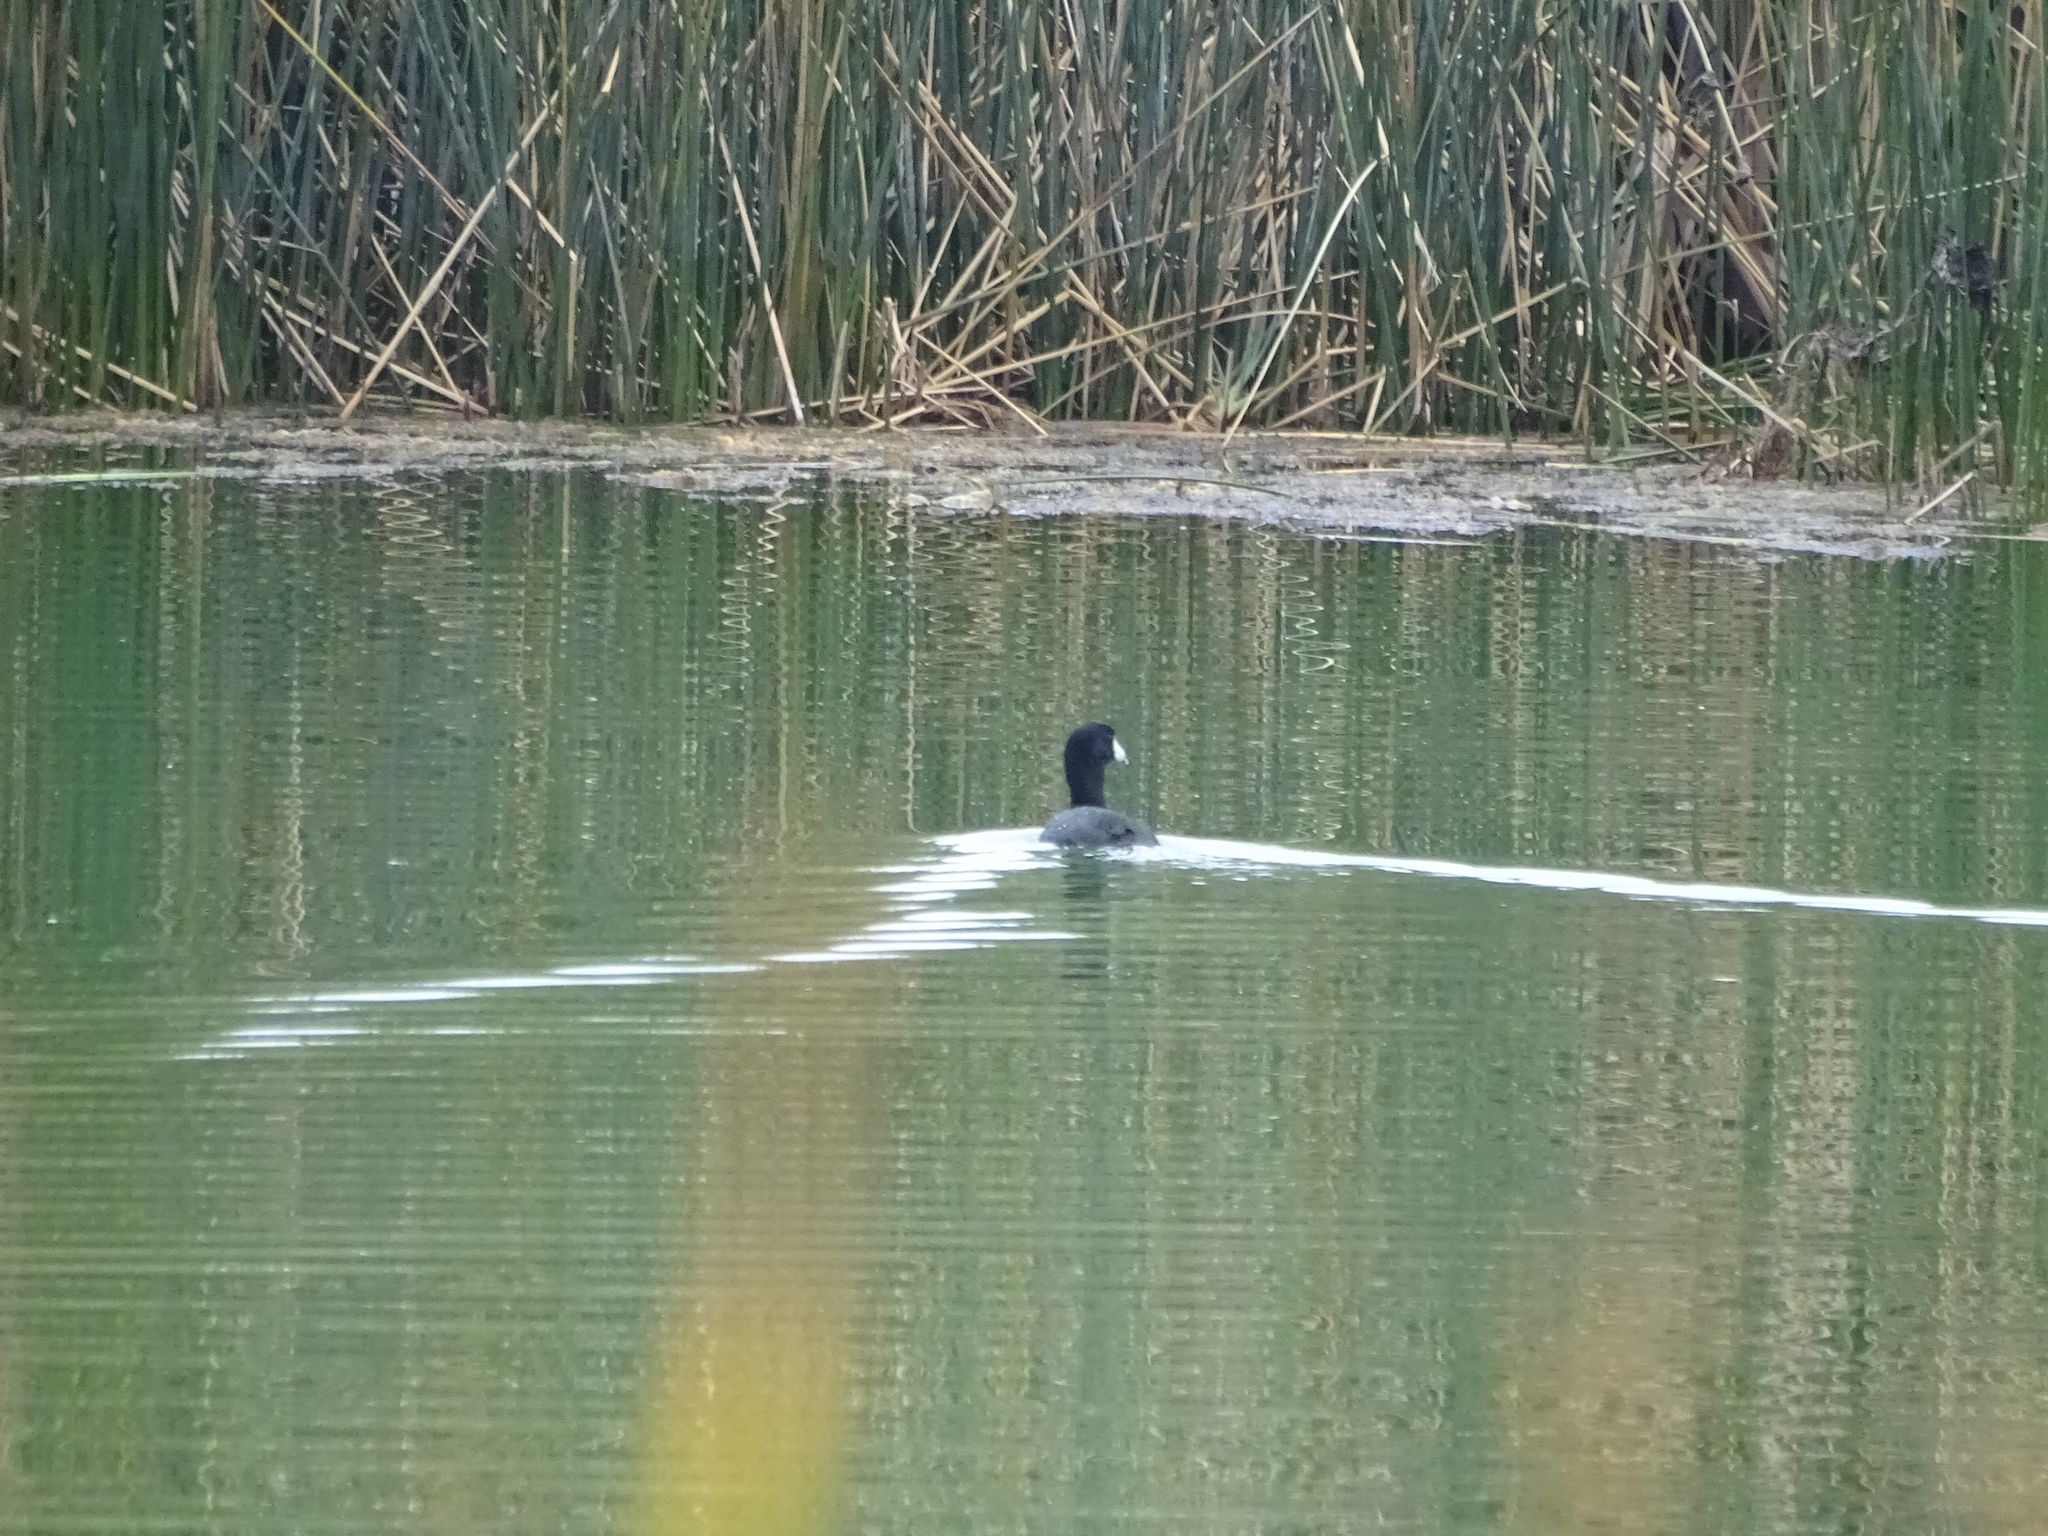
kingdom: Animalia
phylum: Chordata
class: Aves
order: Gruiformes
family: Rallidae
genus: Fulica
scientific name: Fulica americana
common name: American coot
